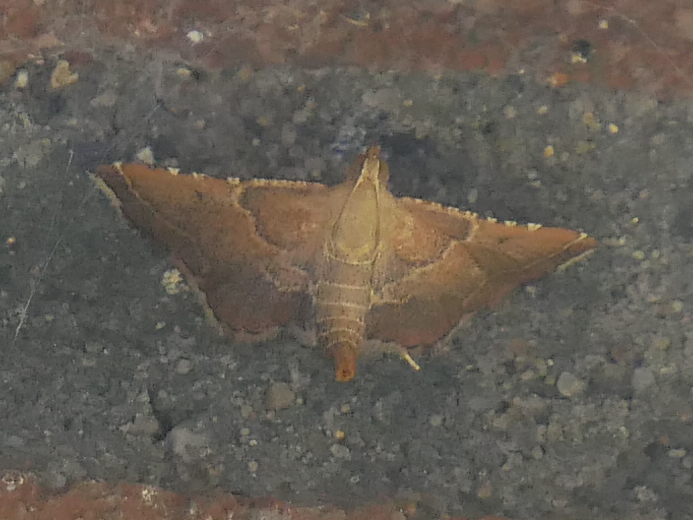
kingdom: Animalia
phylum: Arthropoda
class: Insecta
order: Lepidoptera
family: Pyralidae
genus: Endotricha
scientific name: Endotricha flammealis
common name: Rosy tabby
